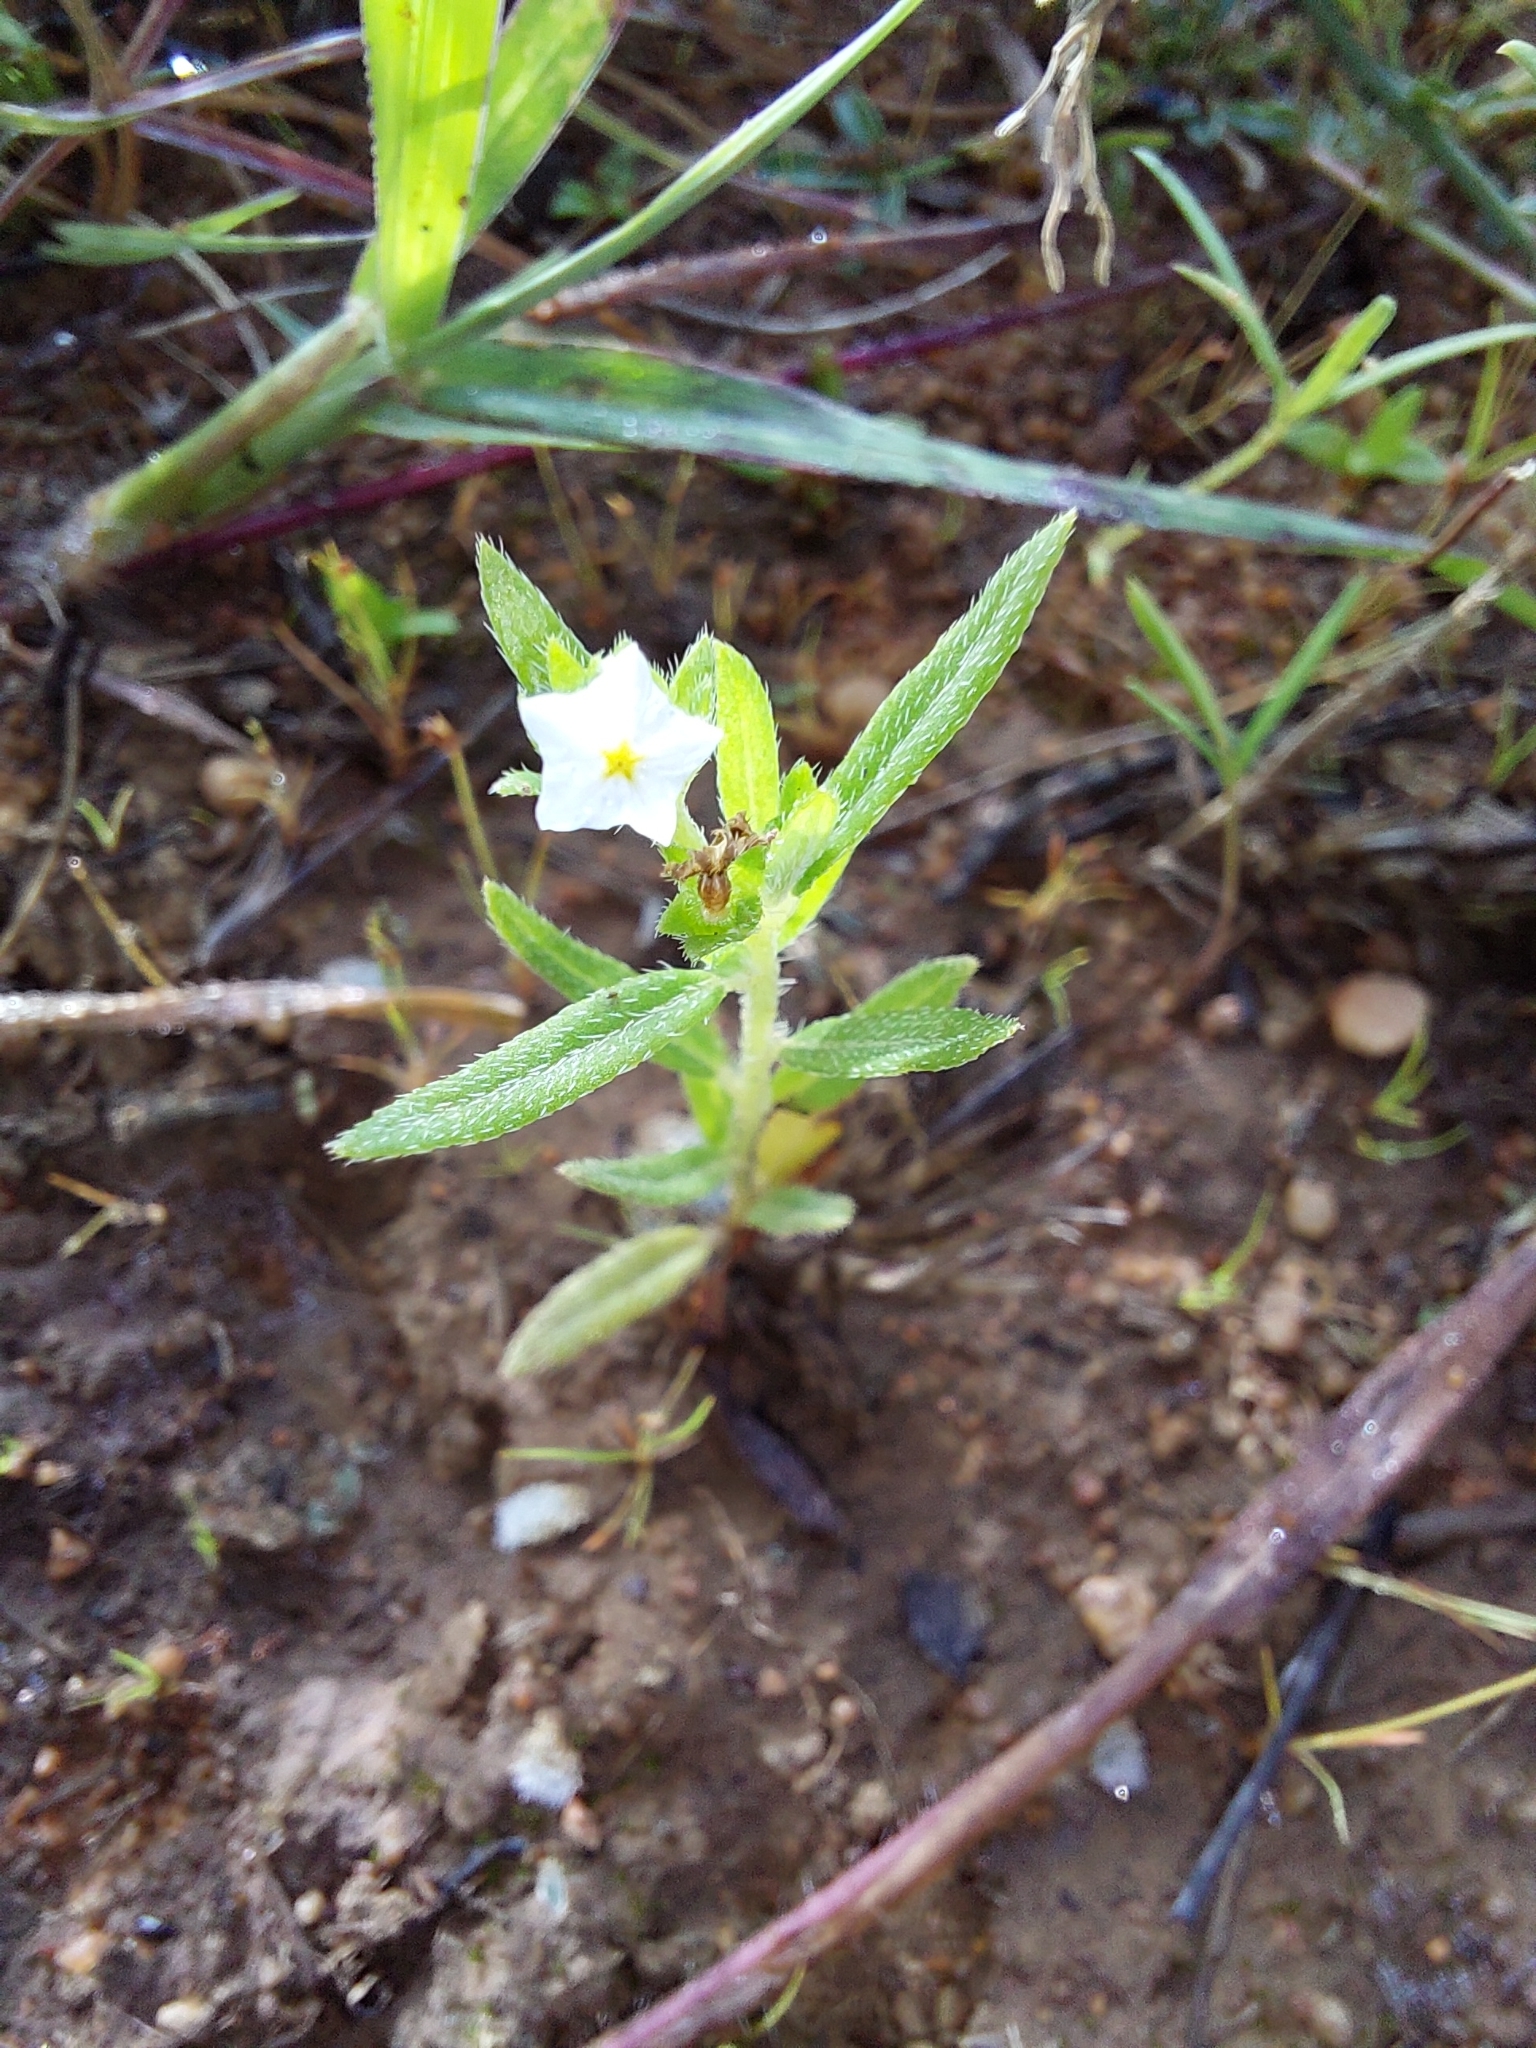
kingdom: Plantae
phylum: Tracheophyta
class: Magnoliopsida
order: Boraginales
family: Heliotropiaceae
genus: Euploca
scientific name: Euploca strigosa
